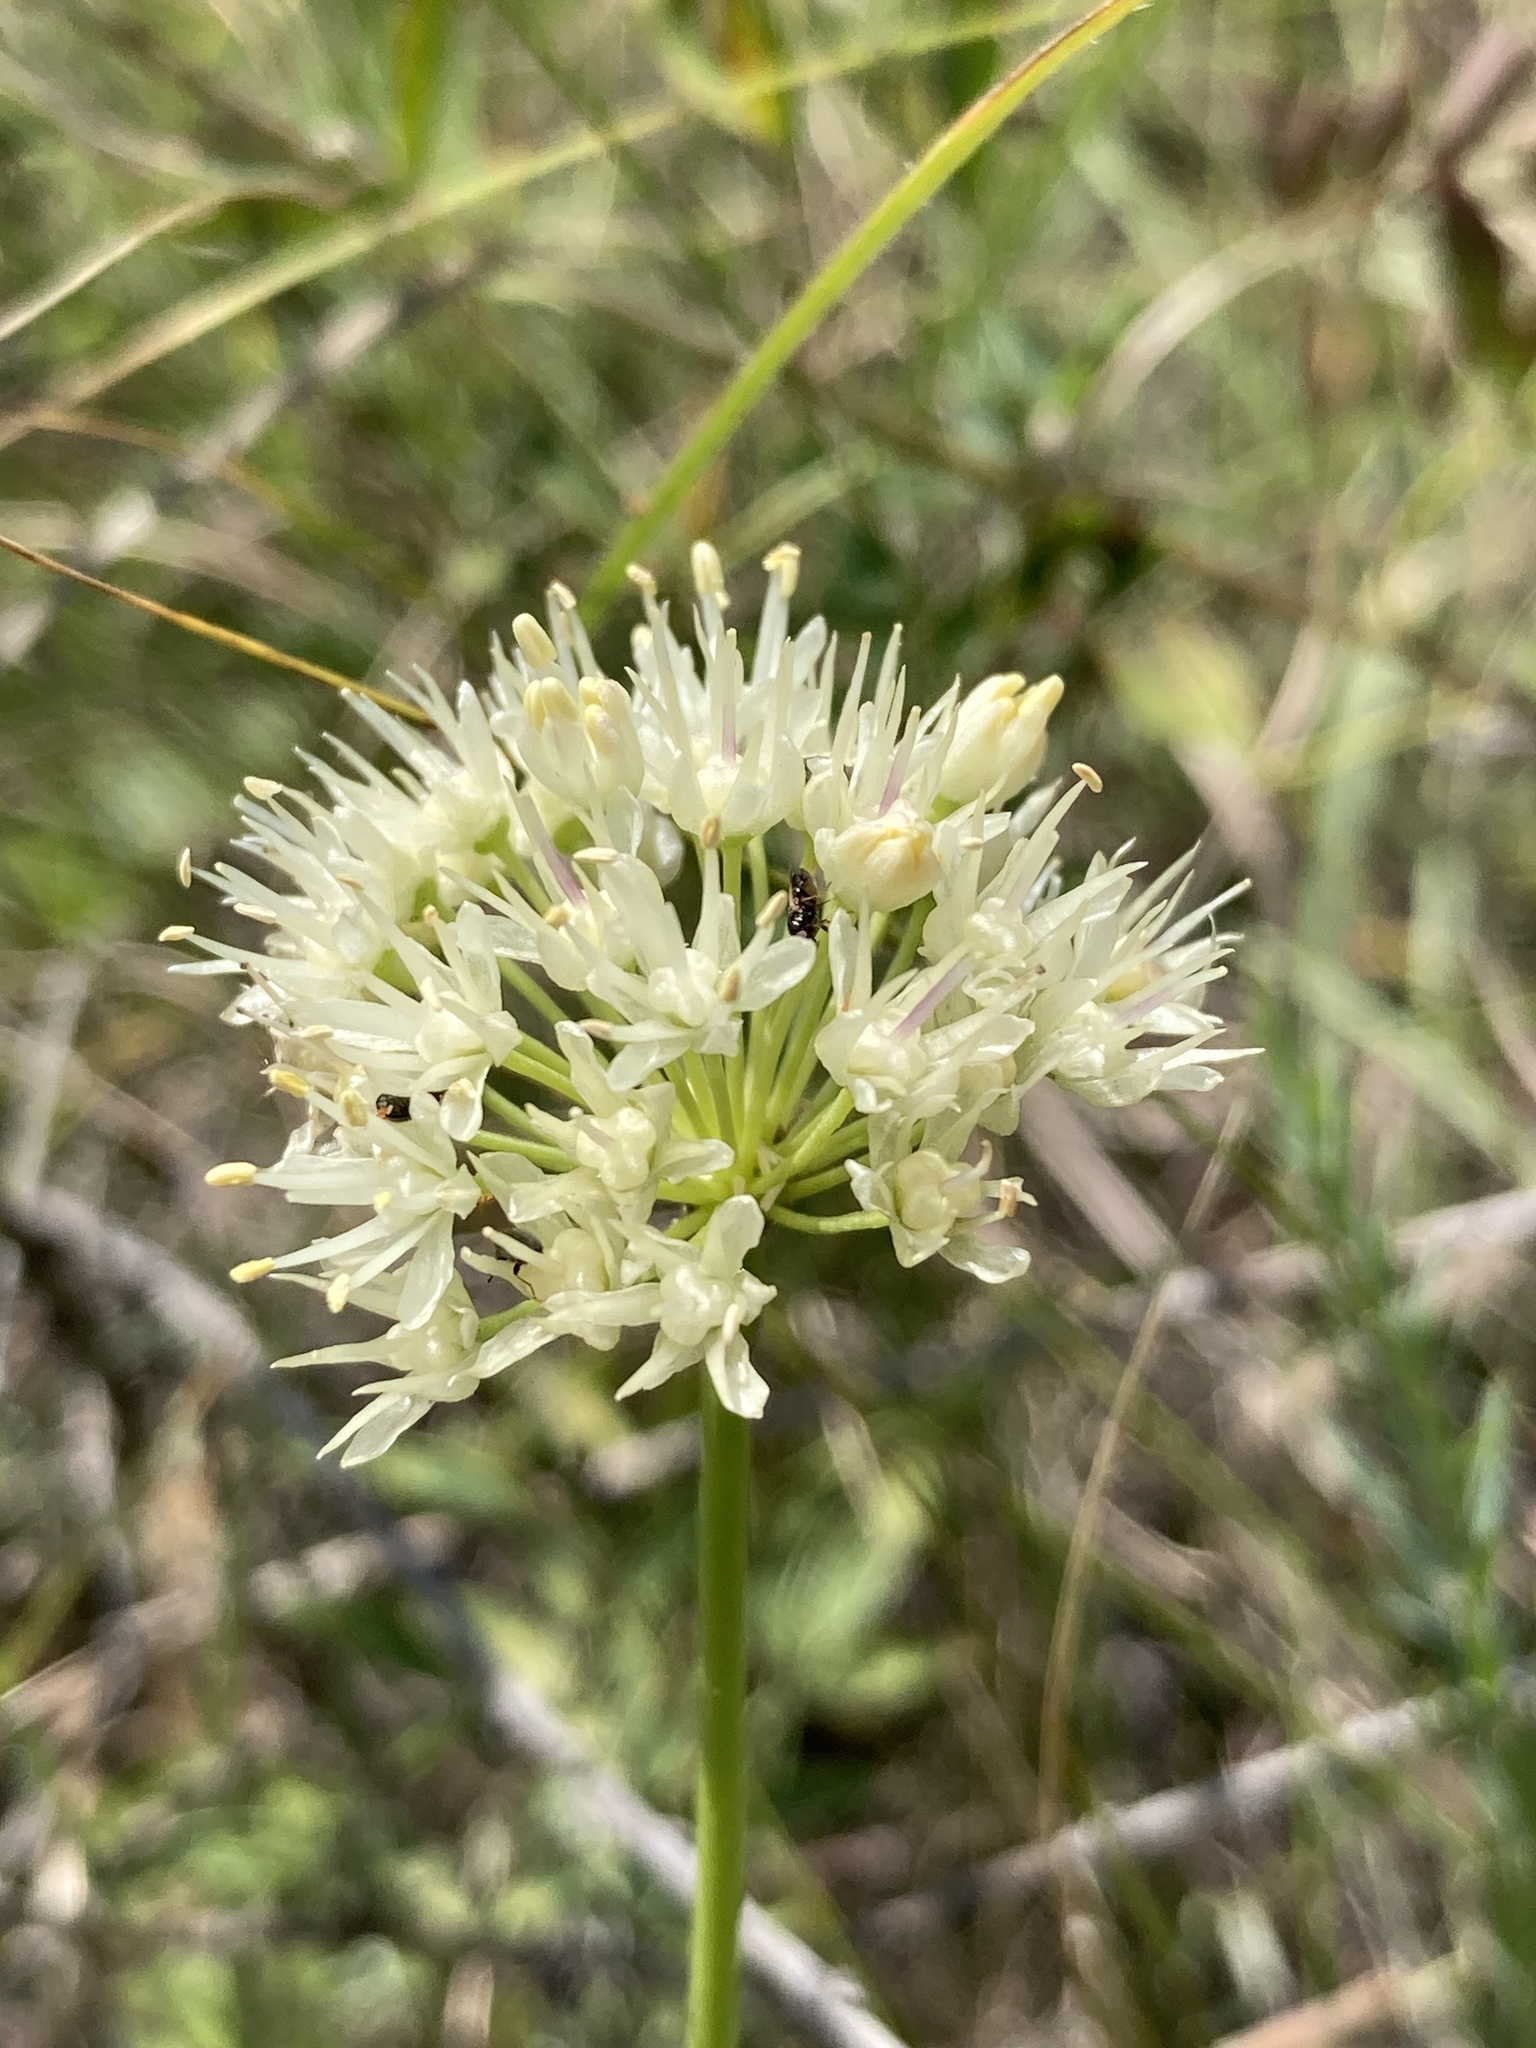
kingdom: Plantae
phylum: Tracheophyta
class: Liliopsida
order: Asparagales
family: Amaryllidaceae
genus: Allium
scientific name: Allium flavescens
